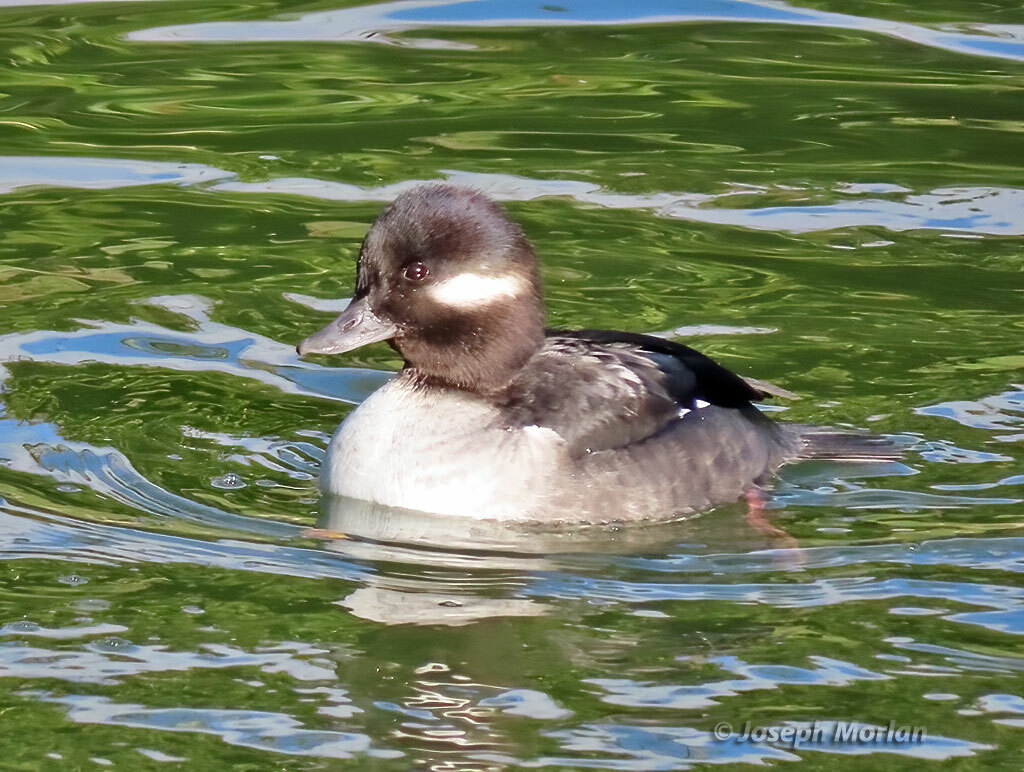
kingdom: Animalia
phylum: Chordata
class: Aves
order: Anseriformes
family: Anatidae
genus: Bucephala
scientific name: Bucephala albeola
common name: Bufflehead
